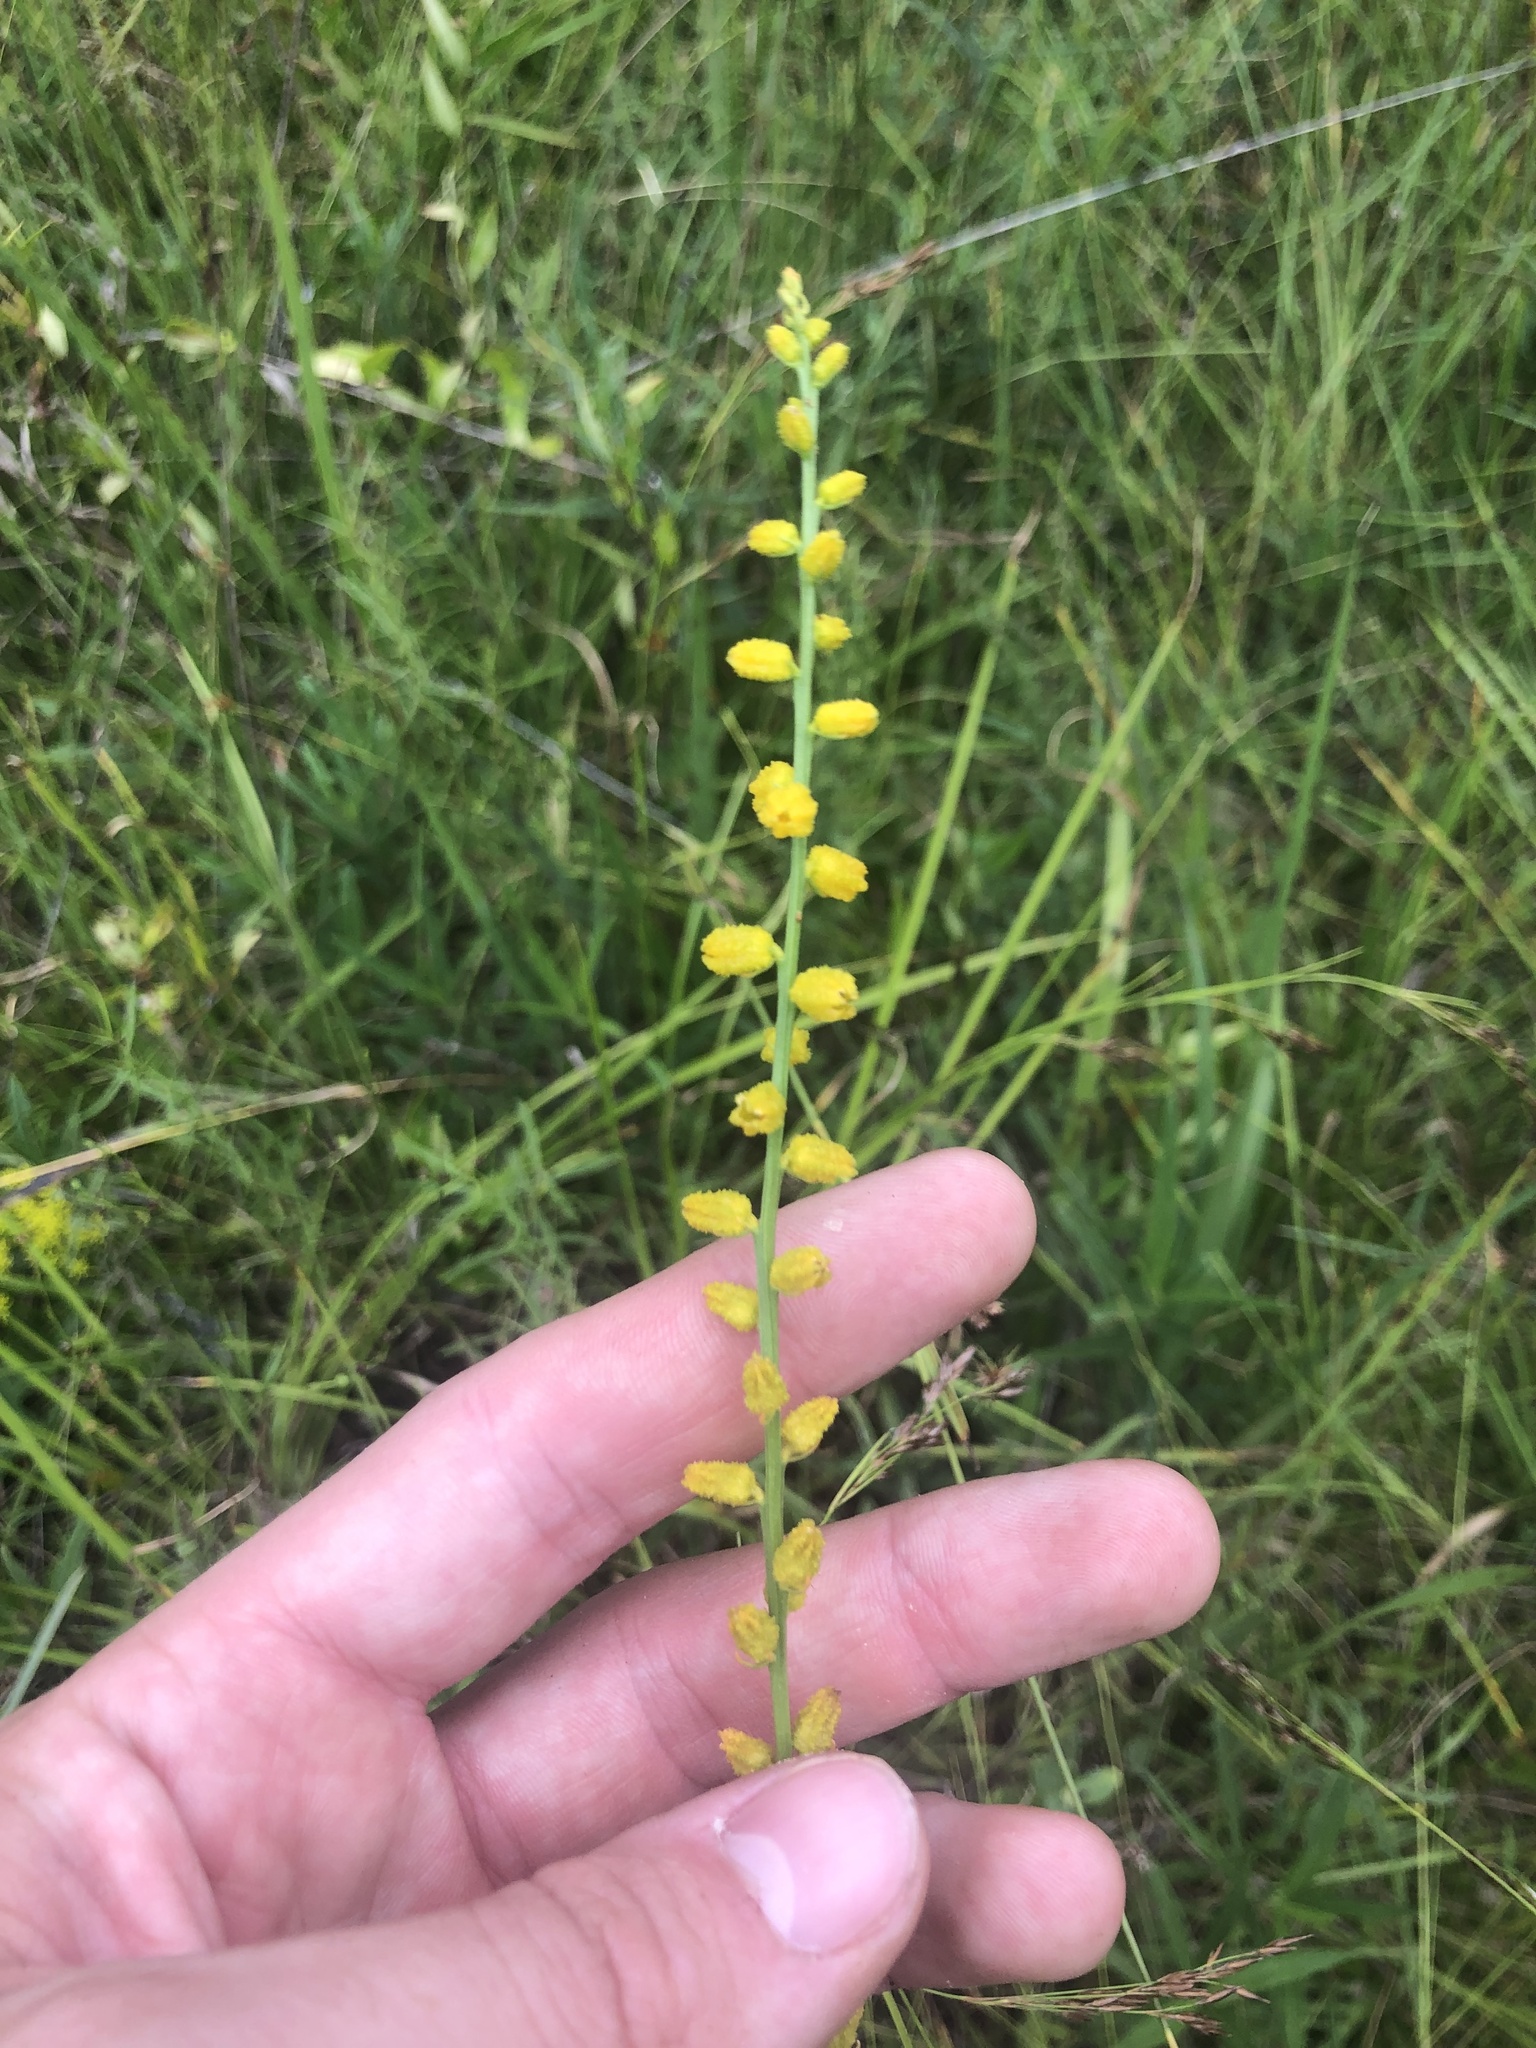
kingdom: Plantae
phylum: Tracheophyta
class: Liliopsida
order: Dioscoreales
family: Nartheciaceae
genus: Aletris
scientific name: Aletris aurea
